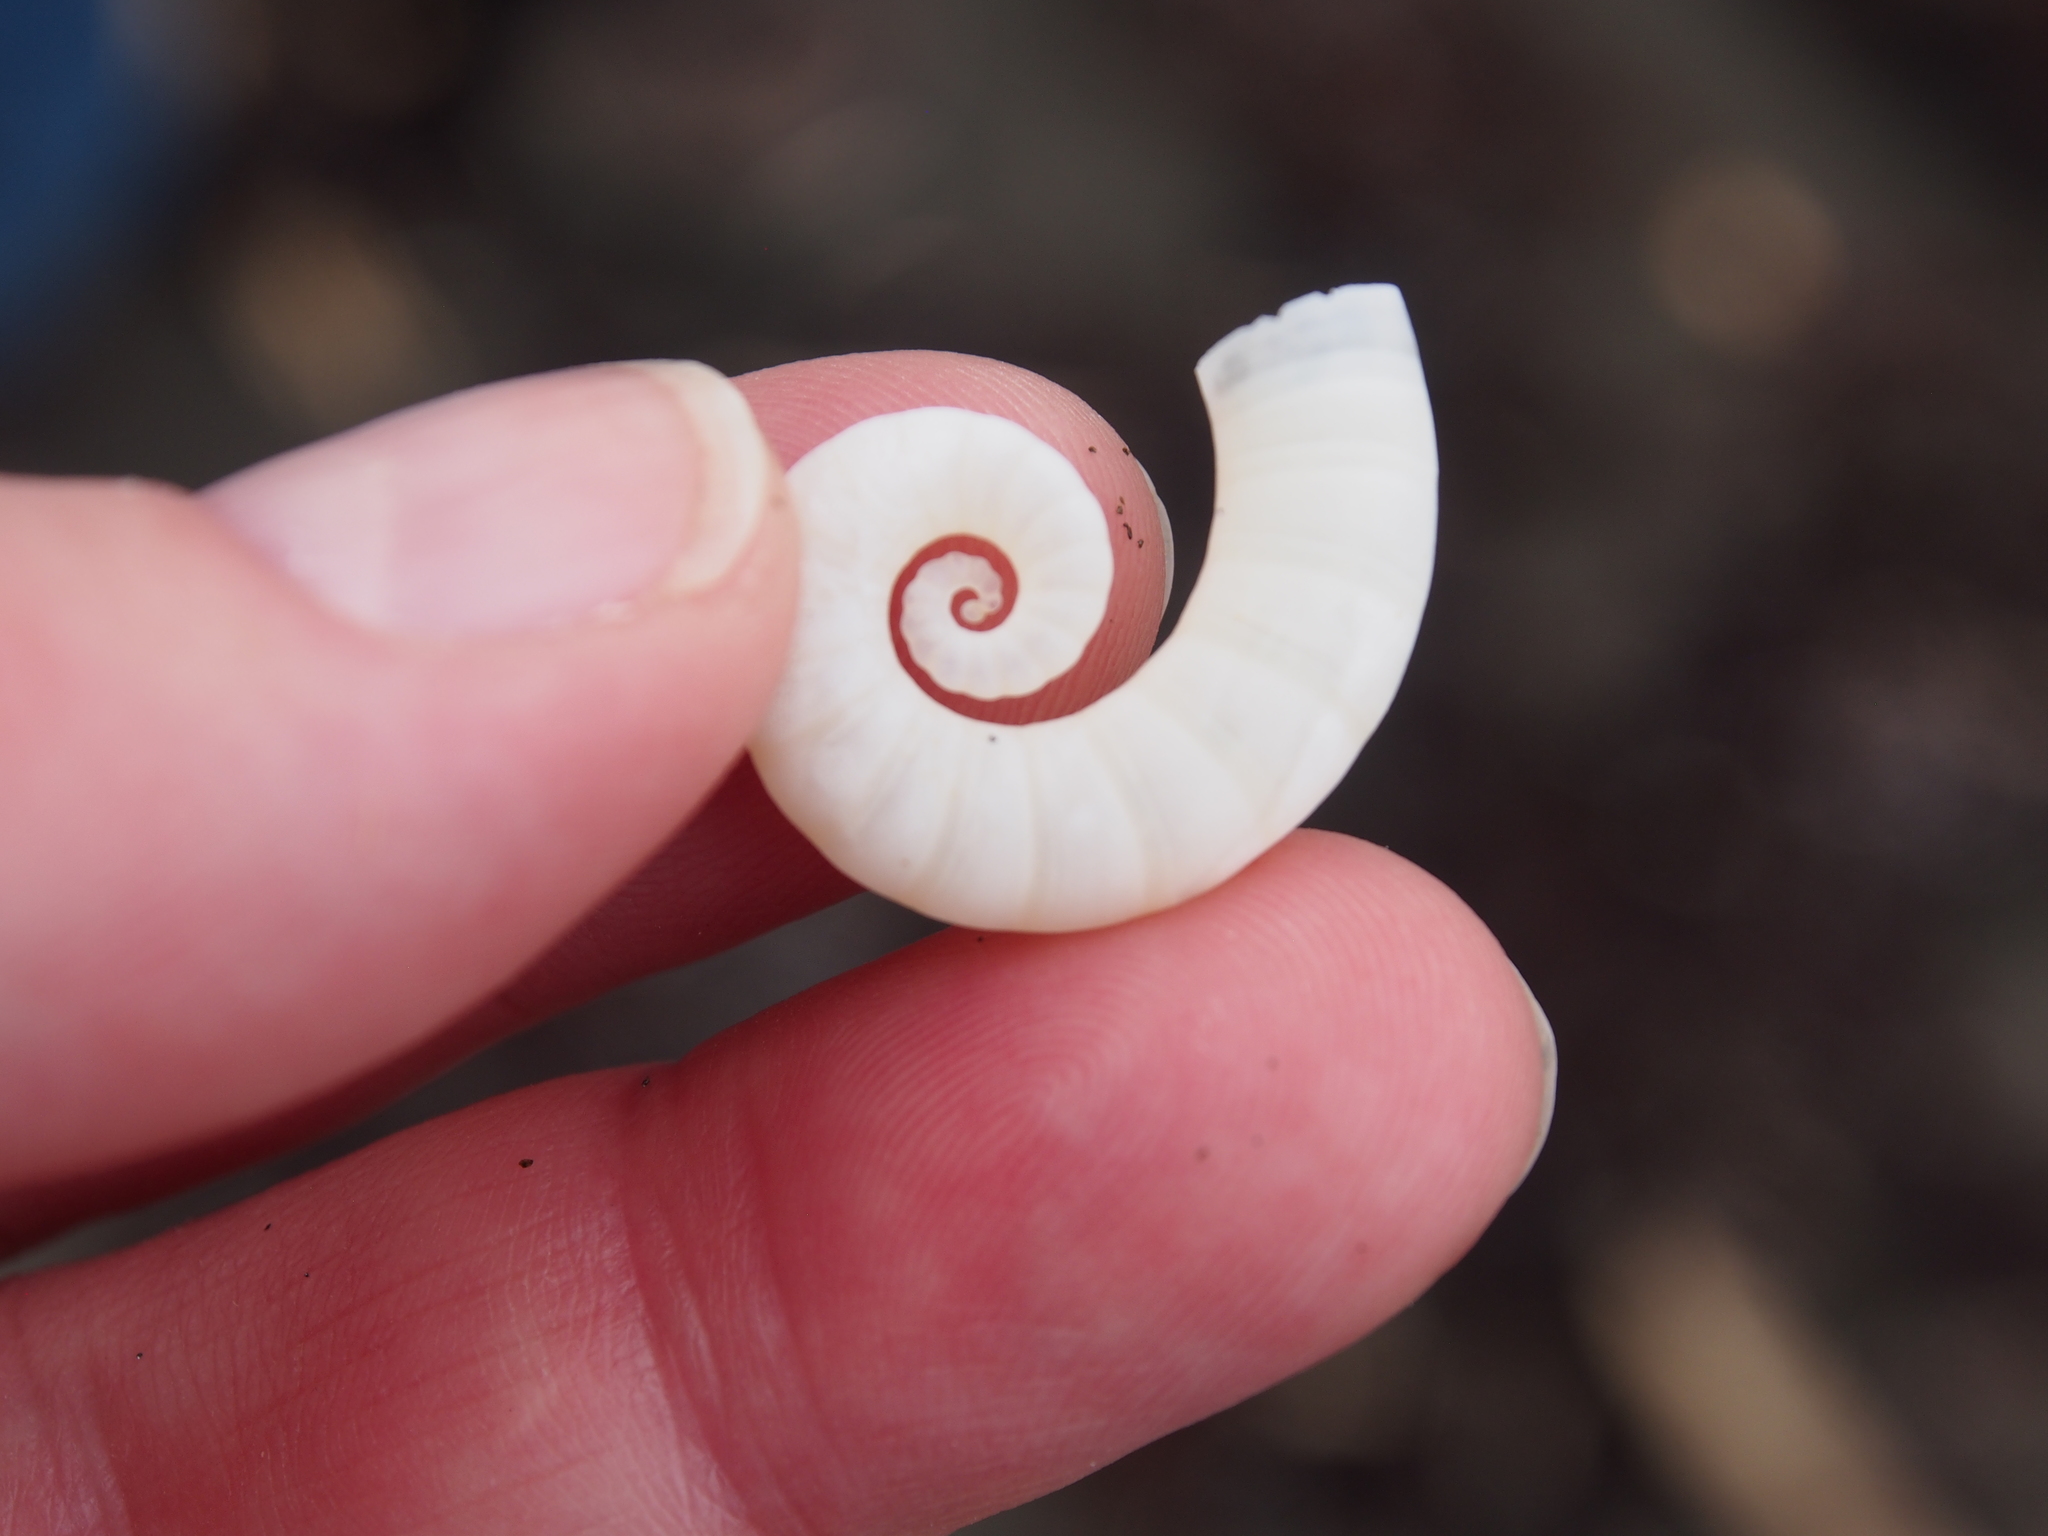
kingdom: Animalia
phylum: Mollusca
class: Cephalopoda
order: Spirulida
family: Spirulidae
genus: Spirula
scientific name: Spirula spirula
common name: Ram's horn squid
